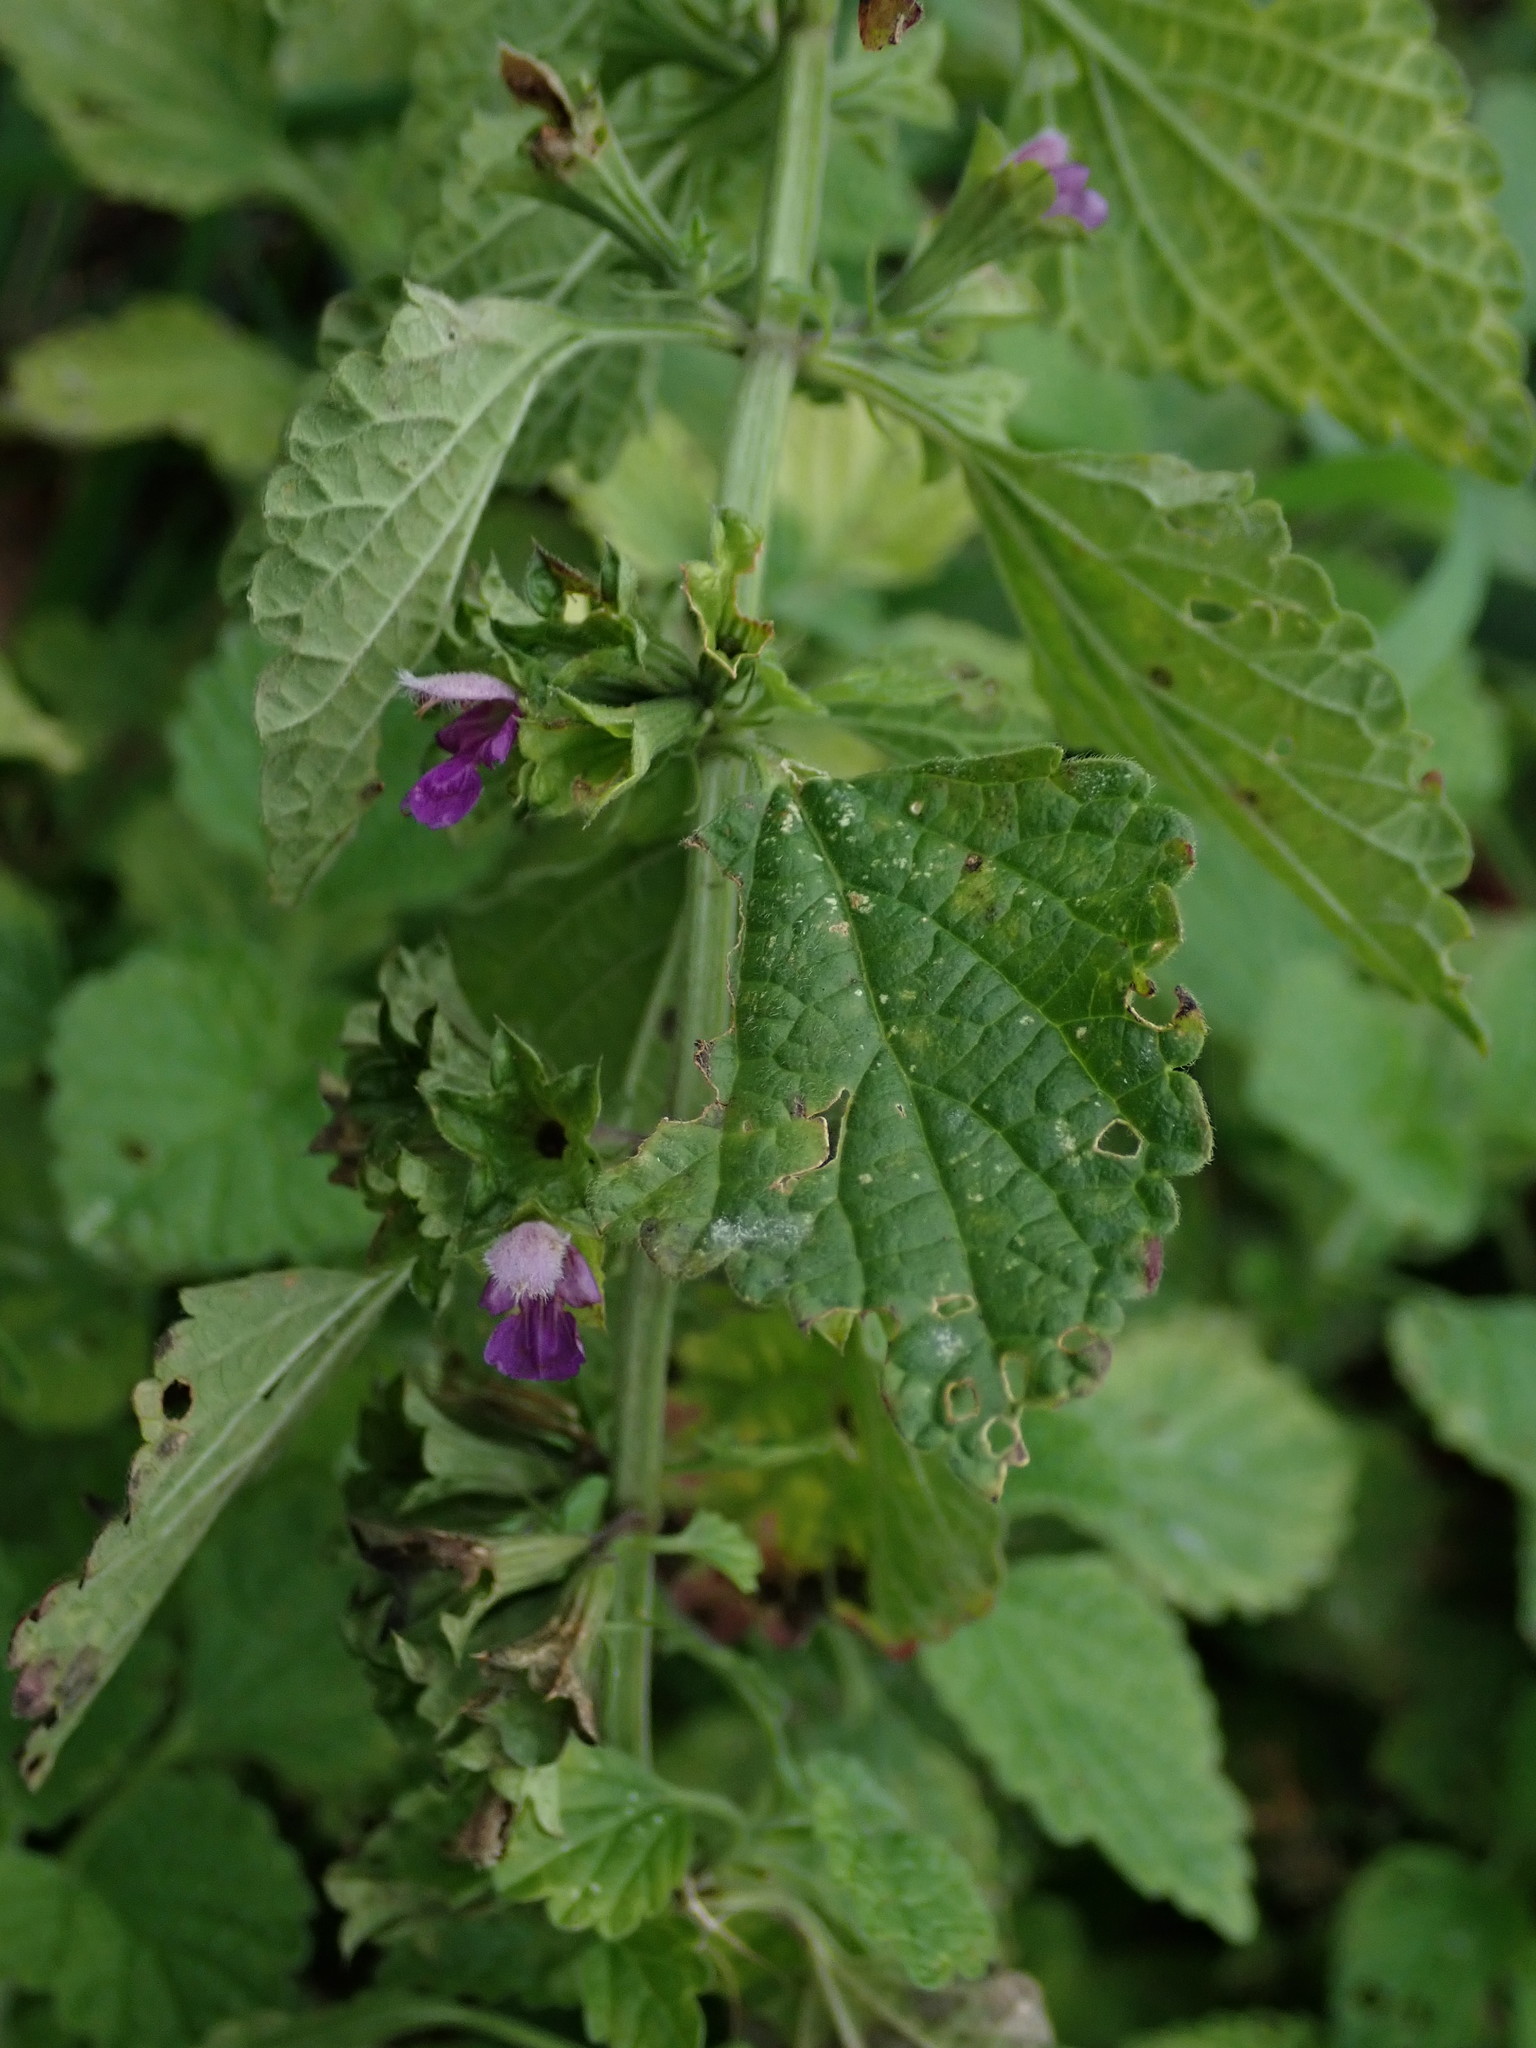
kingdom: Plantae
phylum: Tracheophyta
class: Magnoliopsida
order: Lamiales
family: Lamiaceae
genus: Ballota
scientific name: Ballota nigra
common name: Black horehound
